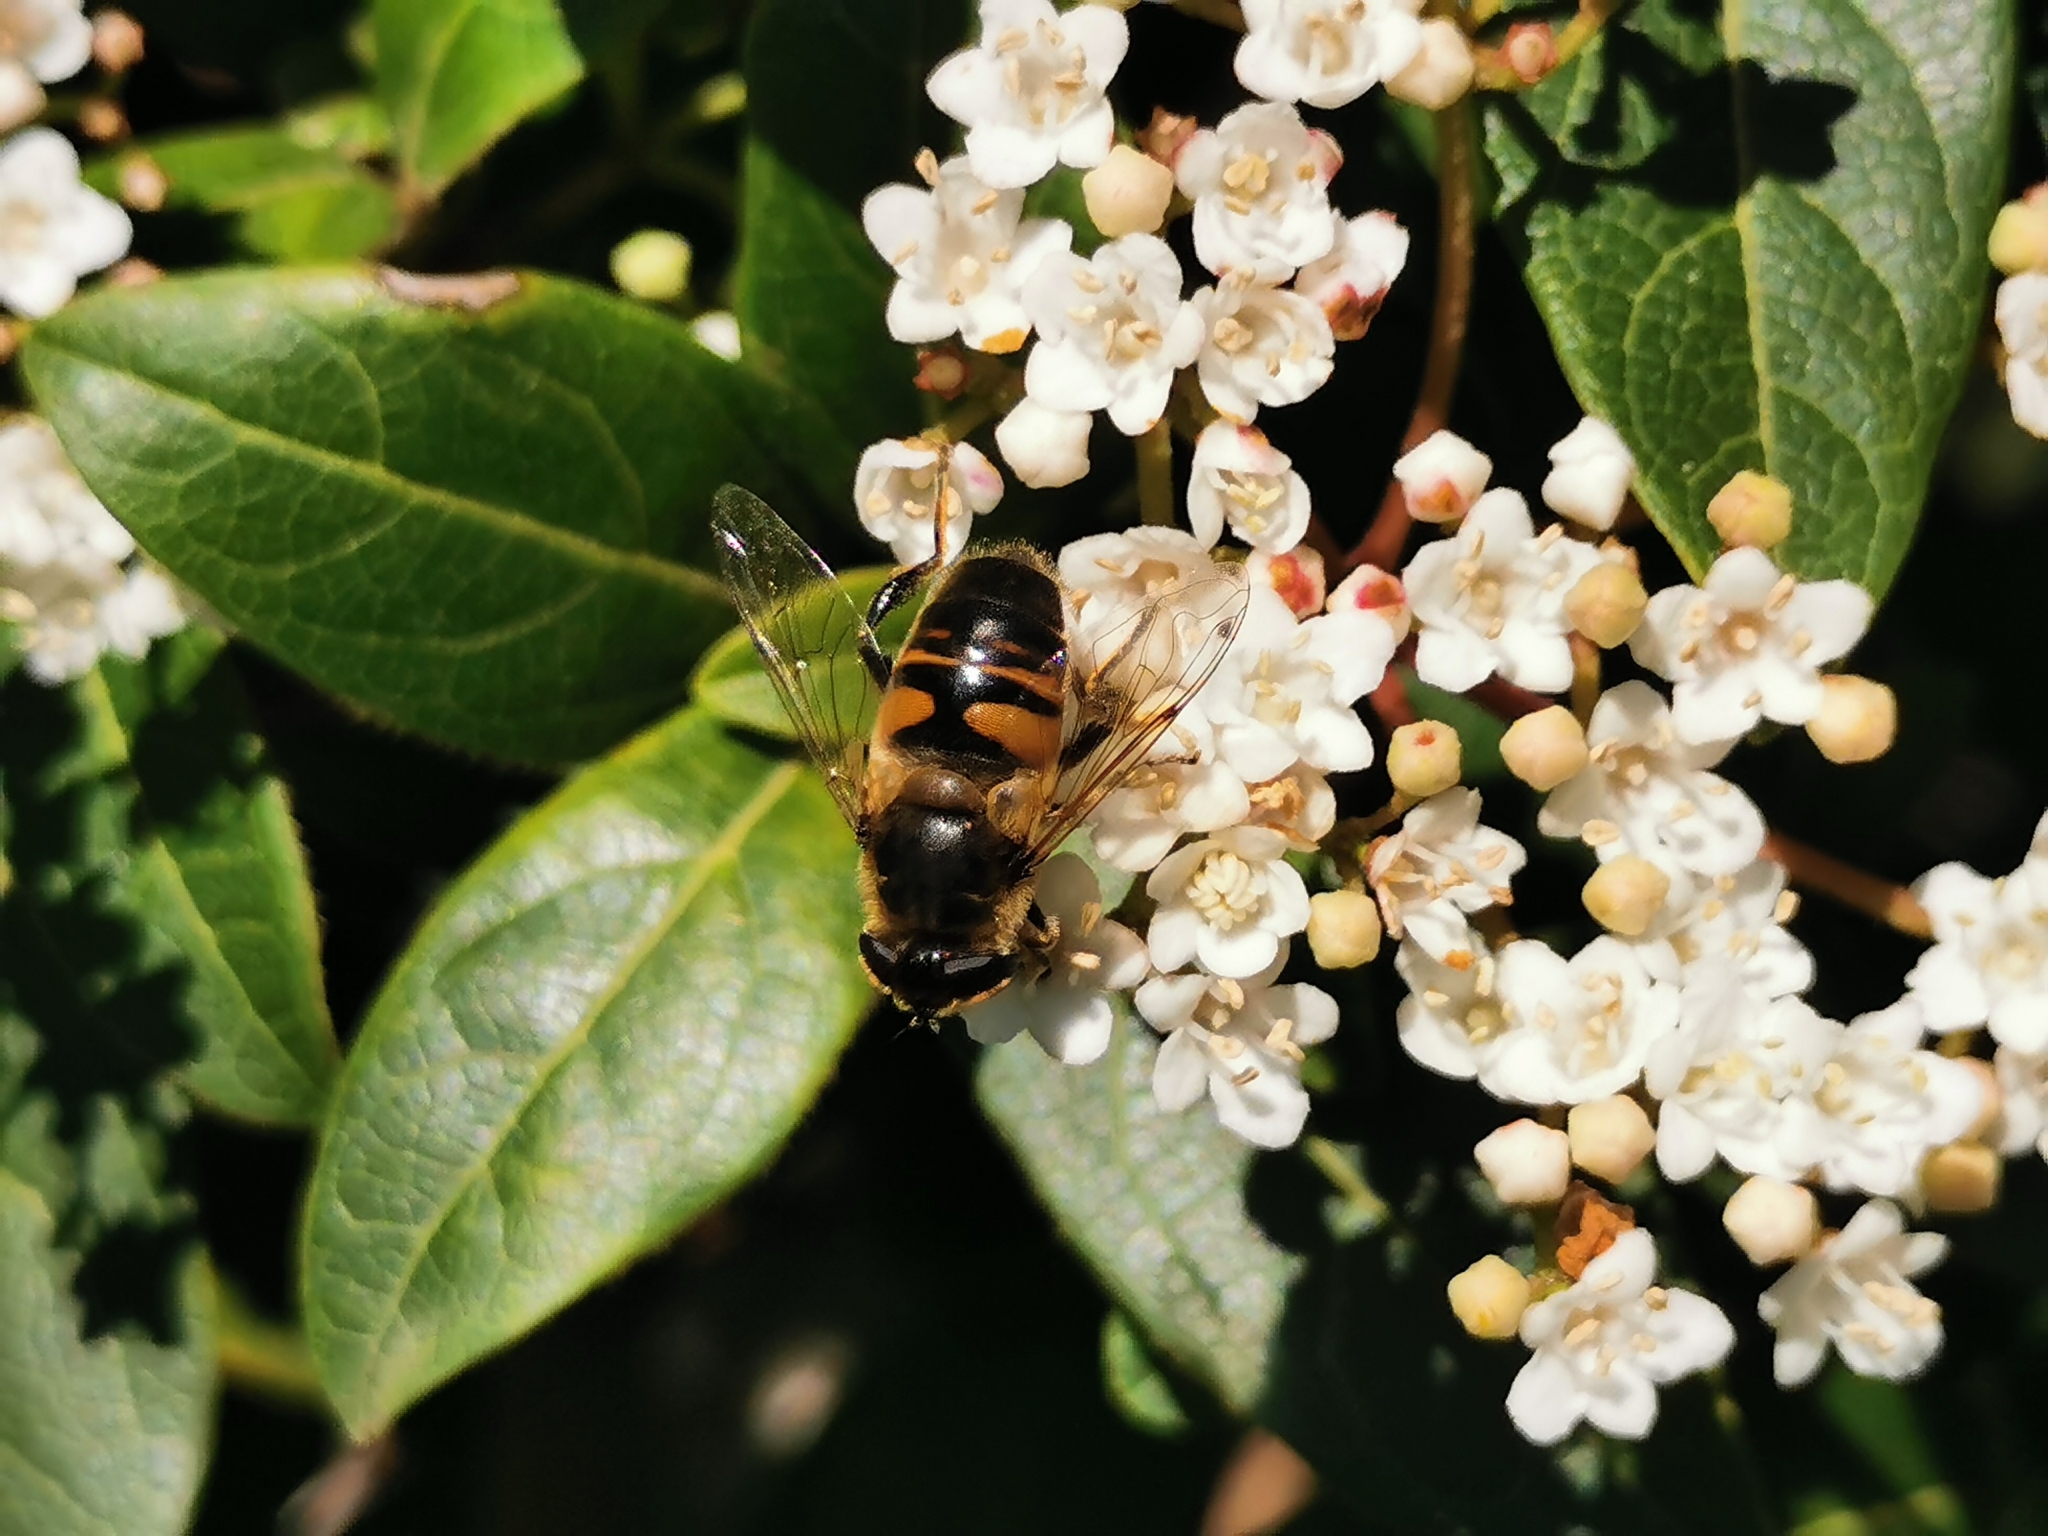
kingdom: Animalia
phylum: Arthropoda
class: Insecta
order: Diptera
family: Syrphidae
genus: Eristalis
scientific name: Eristalis tenax
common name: Drone fly
